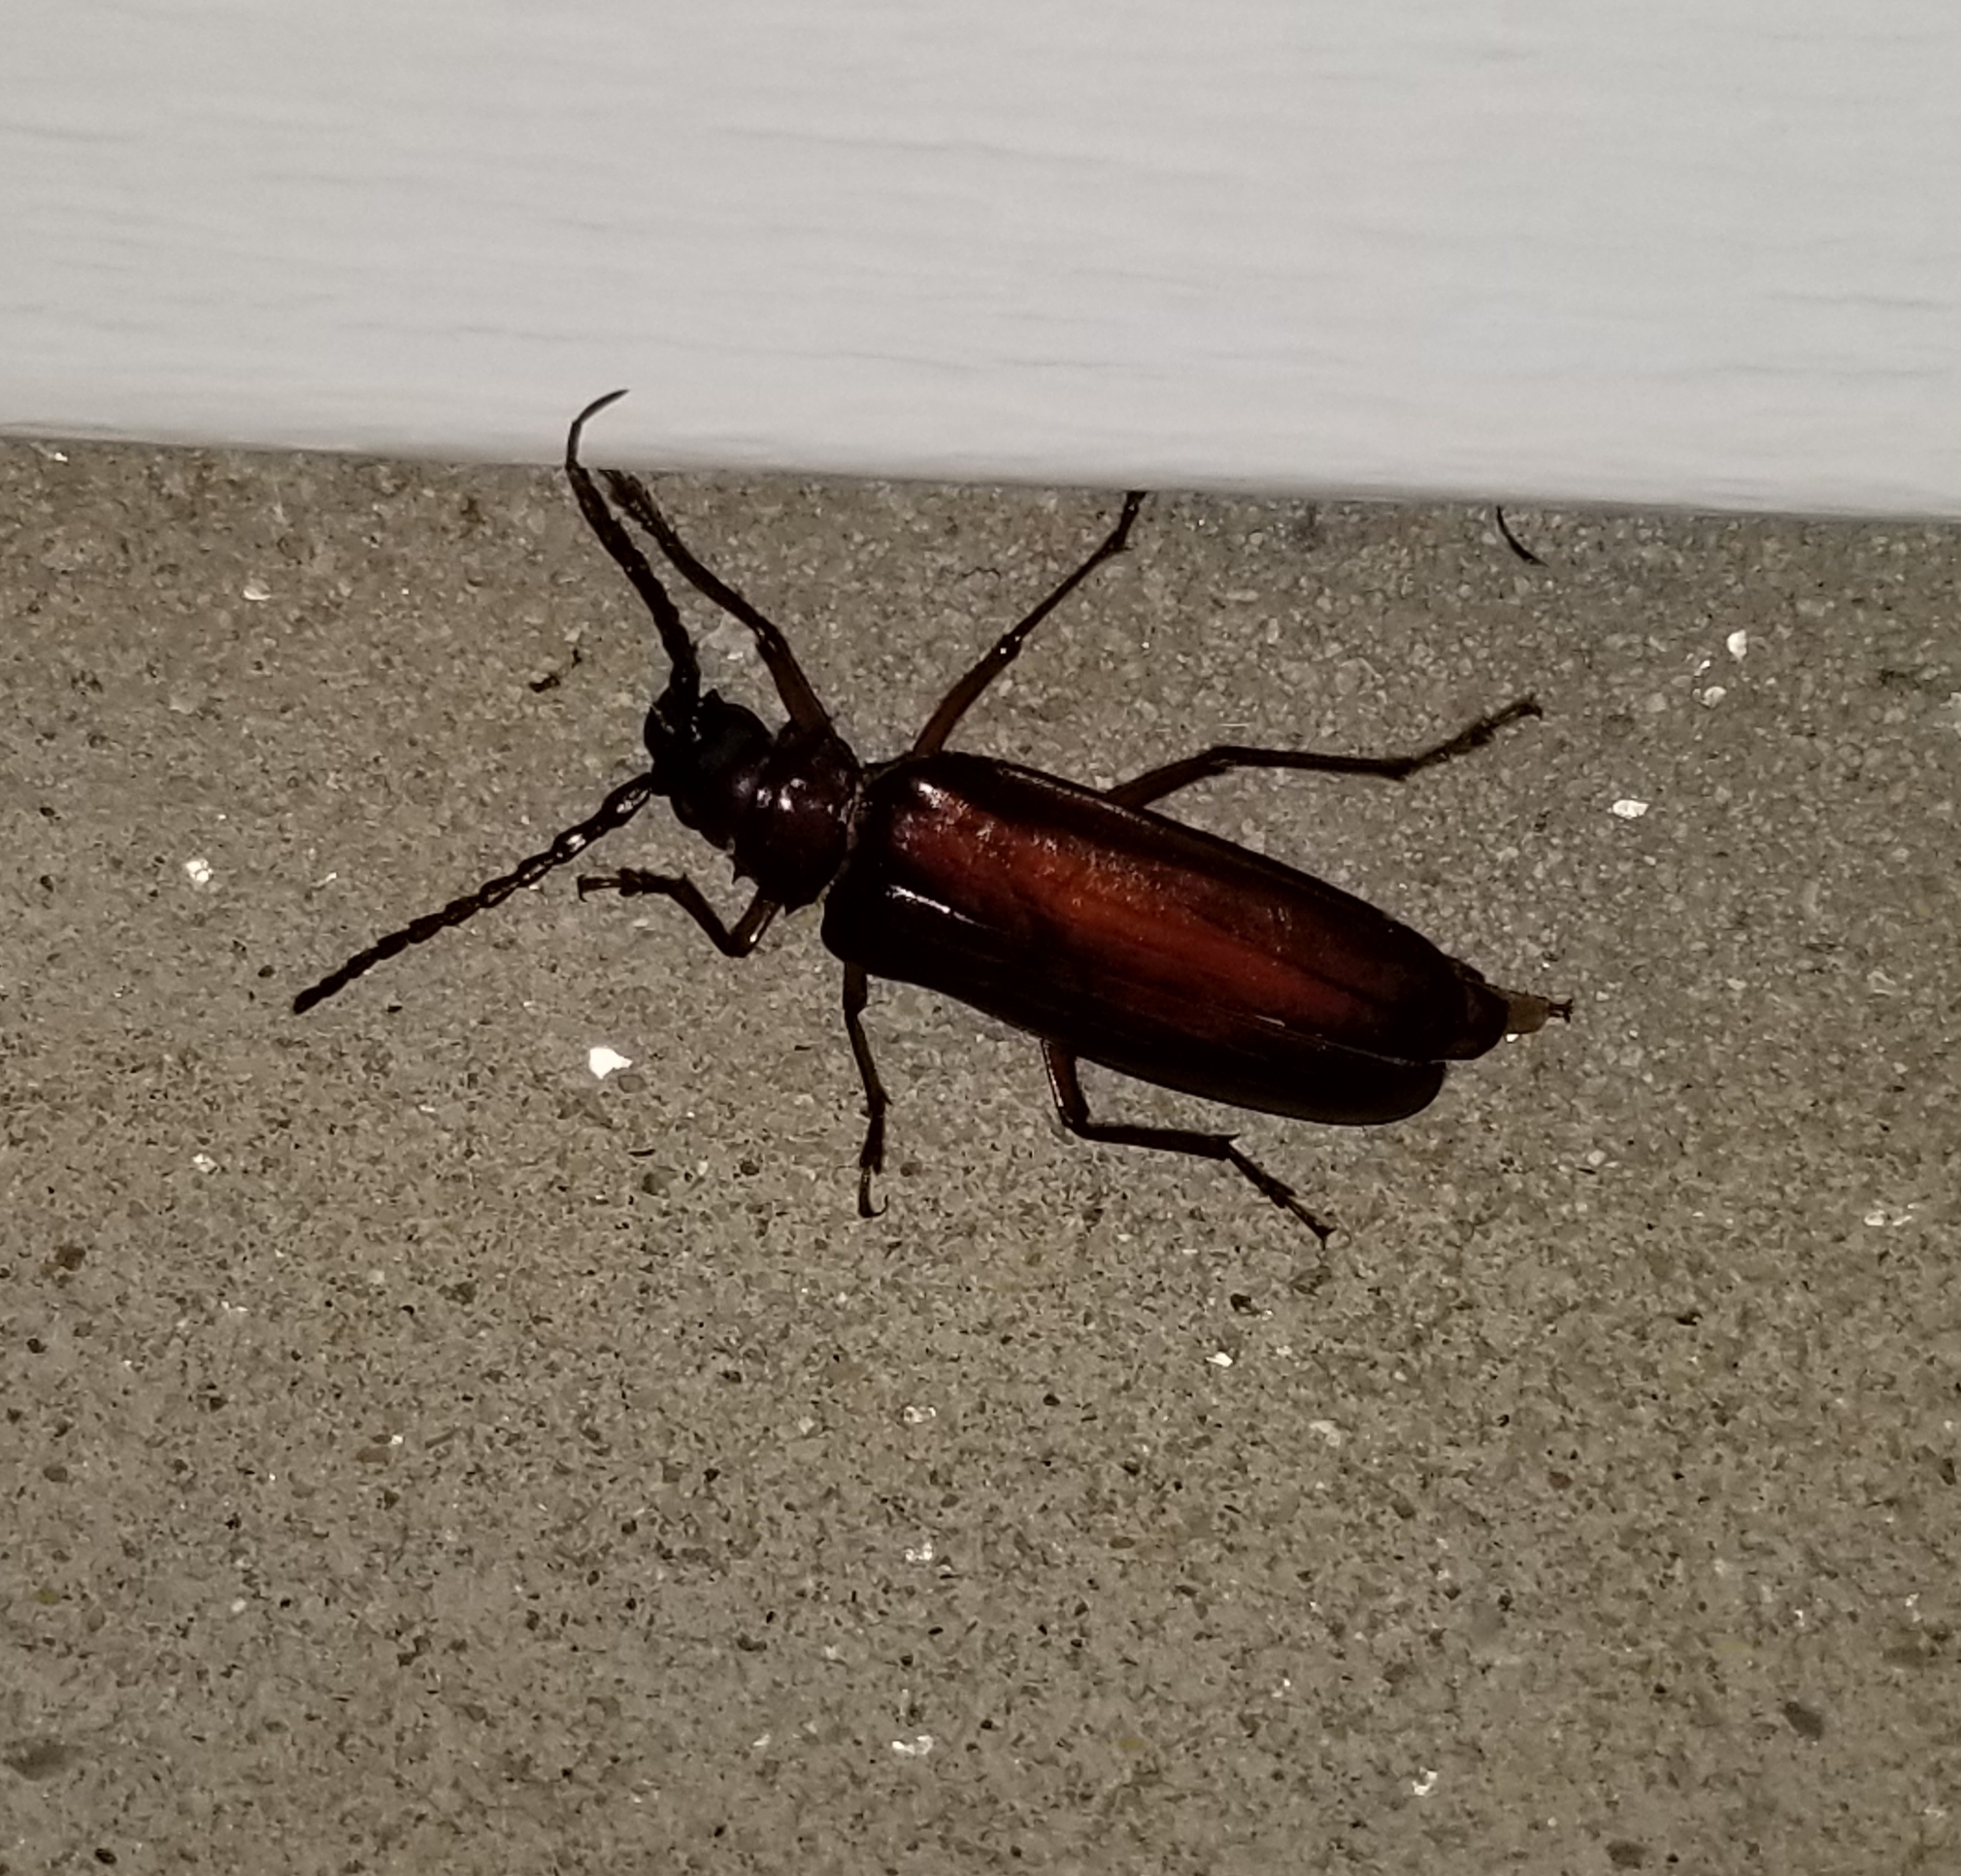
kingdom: Animalia
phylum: Arthropoda
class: Insecta
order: Coleoptera
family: Cerambycidae
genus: Orthosoma
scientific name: Orthosoma brunneum
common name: Brown prionid beetle
